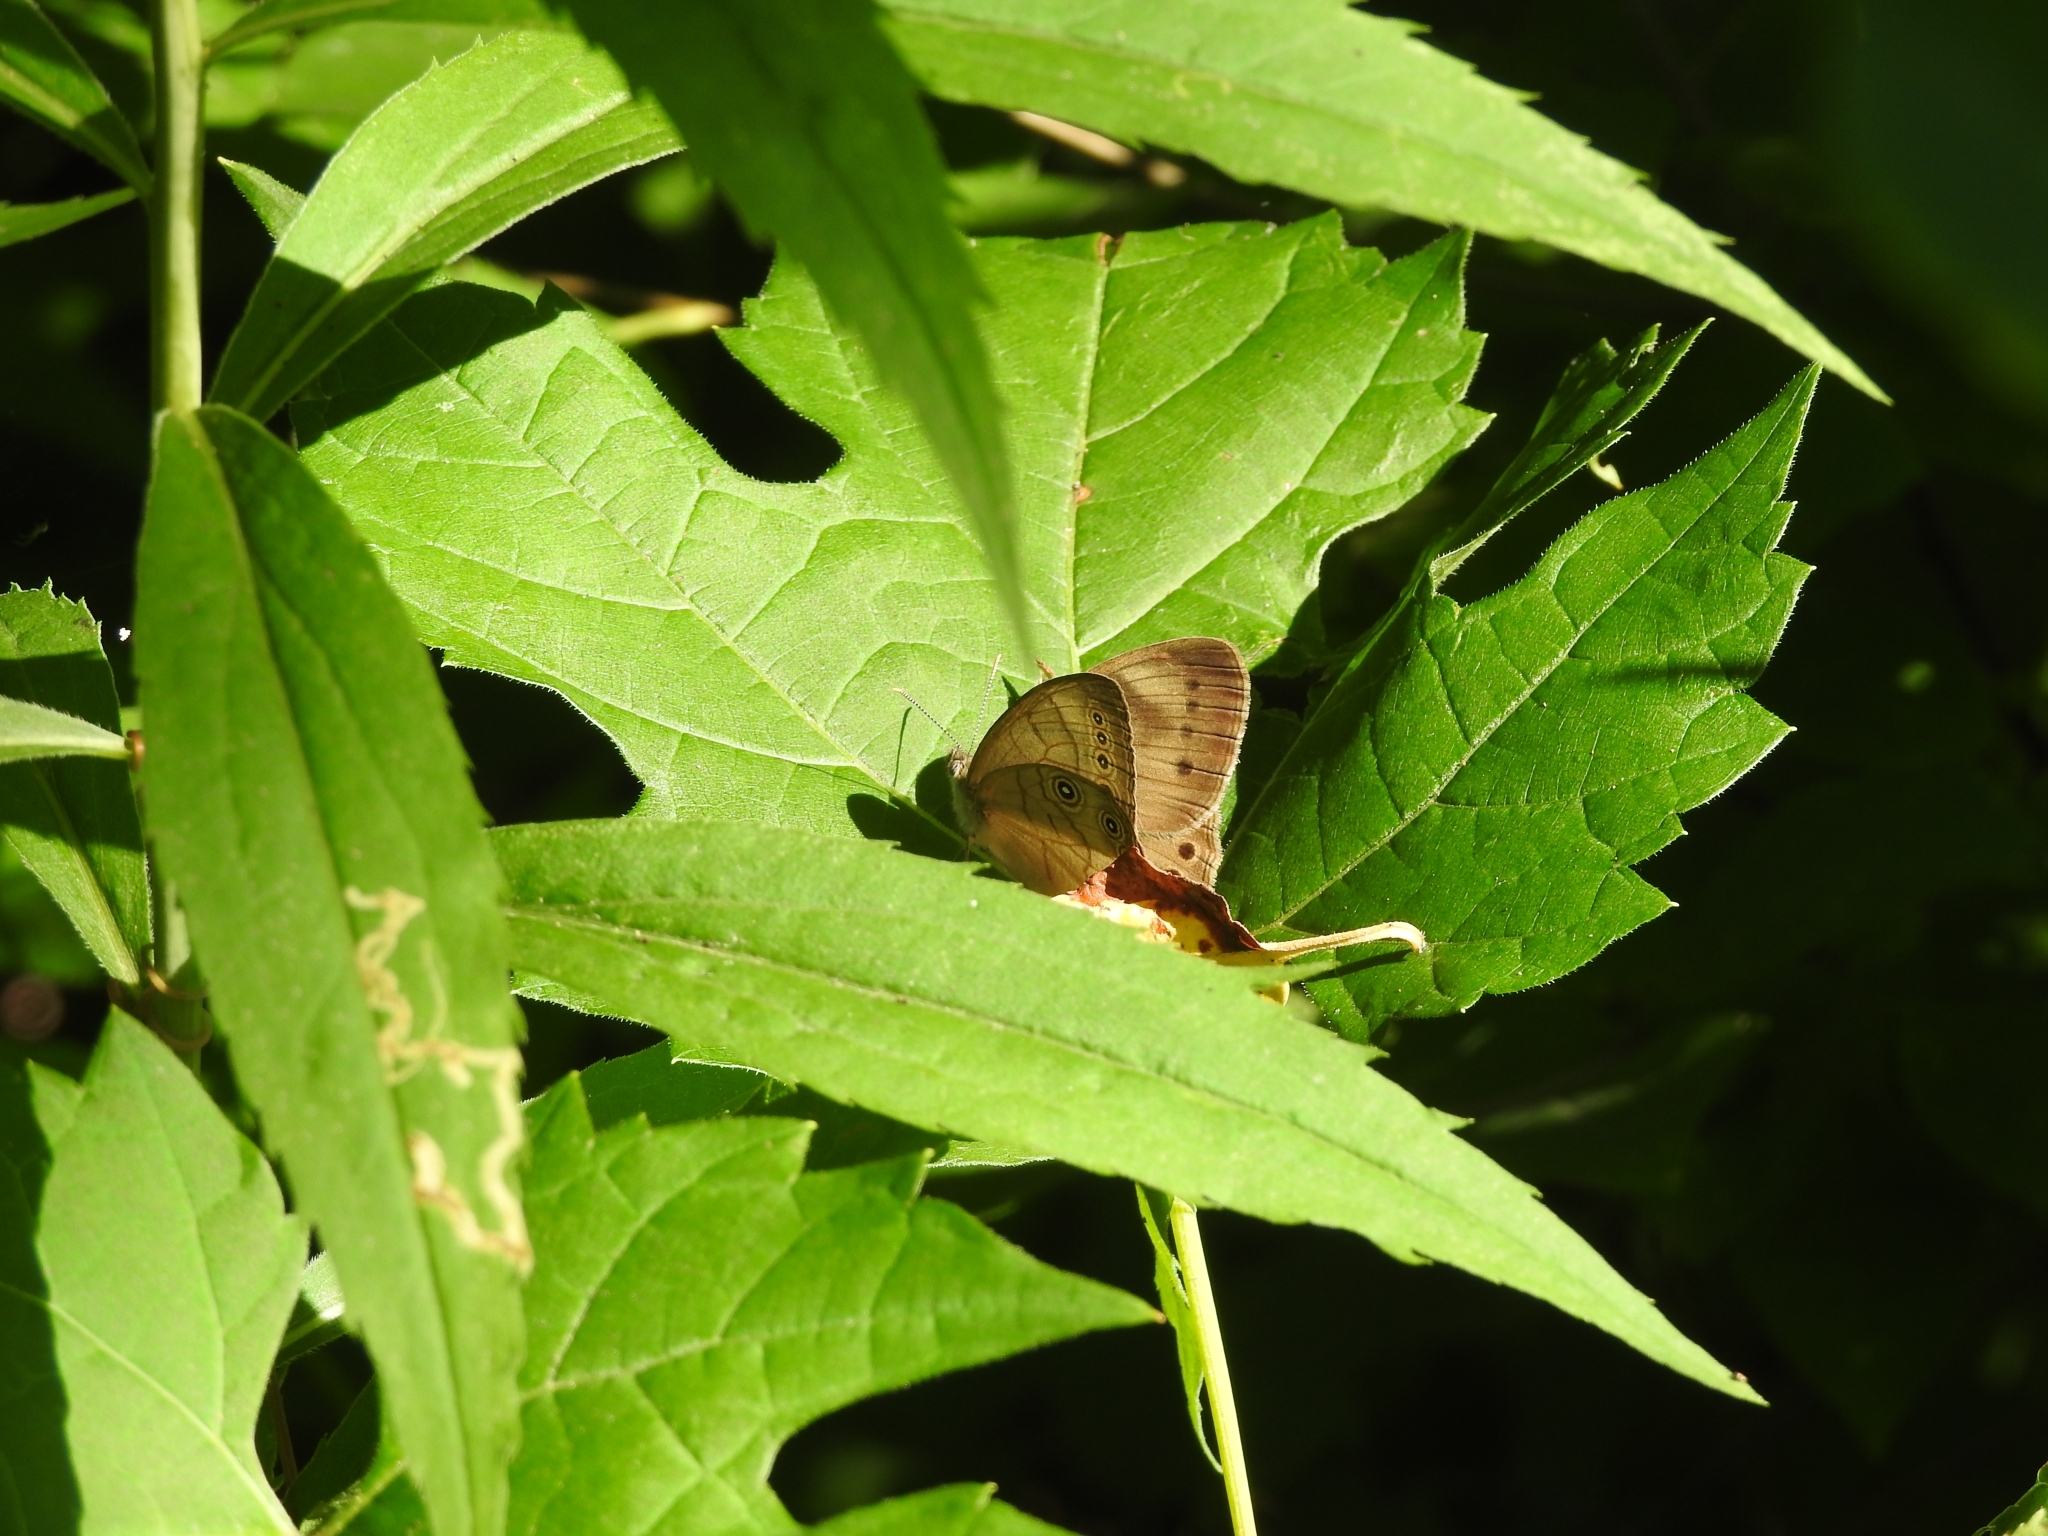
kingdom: Animalia
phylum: Arthropoda
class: Insecta
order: Lepidoptera
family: Nymphalidae
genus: Lethe
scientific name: Lethe eurydice
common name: Eyed brown
